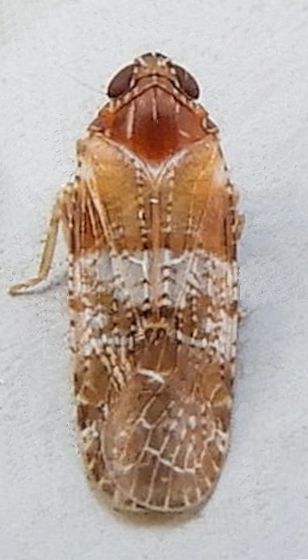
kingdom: Animalia
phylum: Arthropoda
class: Insecta
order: Hemiptera
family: Achilidae
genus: Catonia
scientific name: Catonia picta
